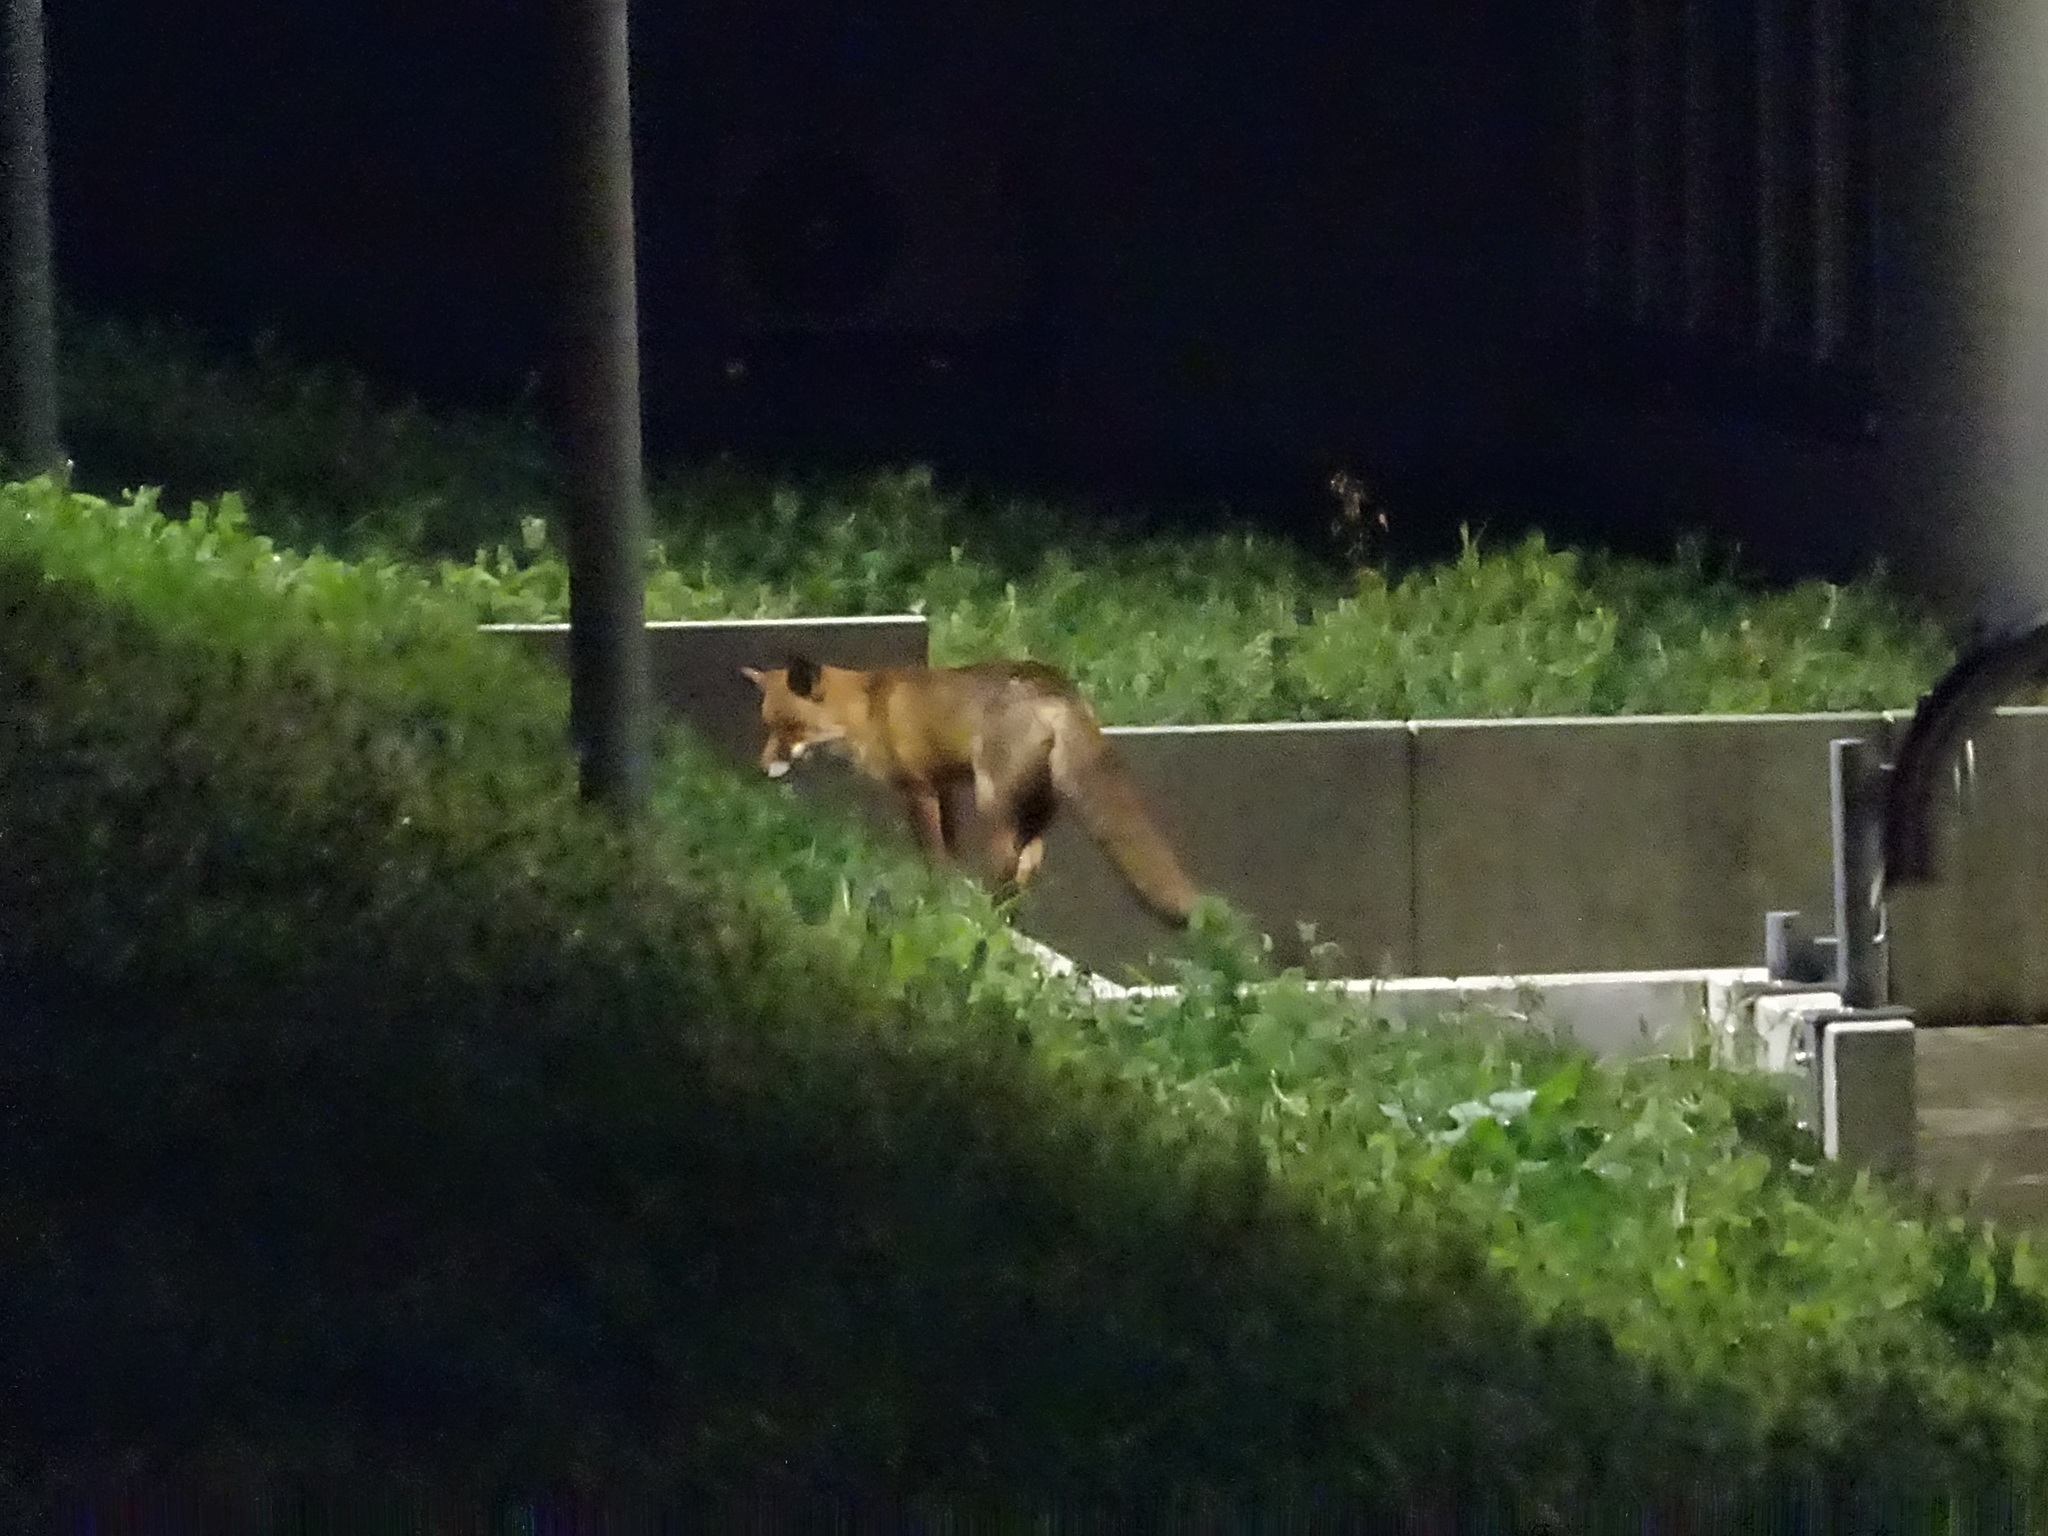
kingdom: Animalia
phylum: Chordata
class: Mammalia
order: Carnivora
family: Canidae
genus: Vulpes
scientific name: Vulpes vulpes
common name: Red fox
